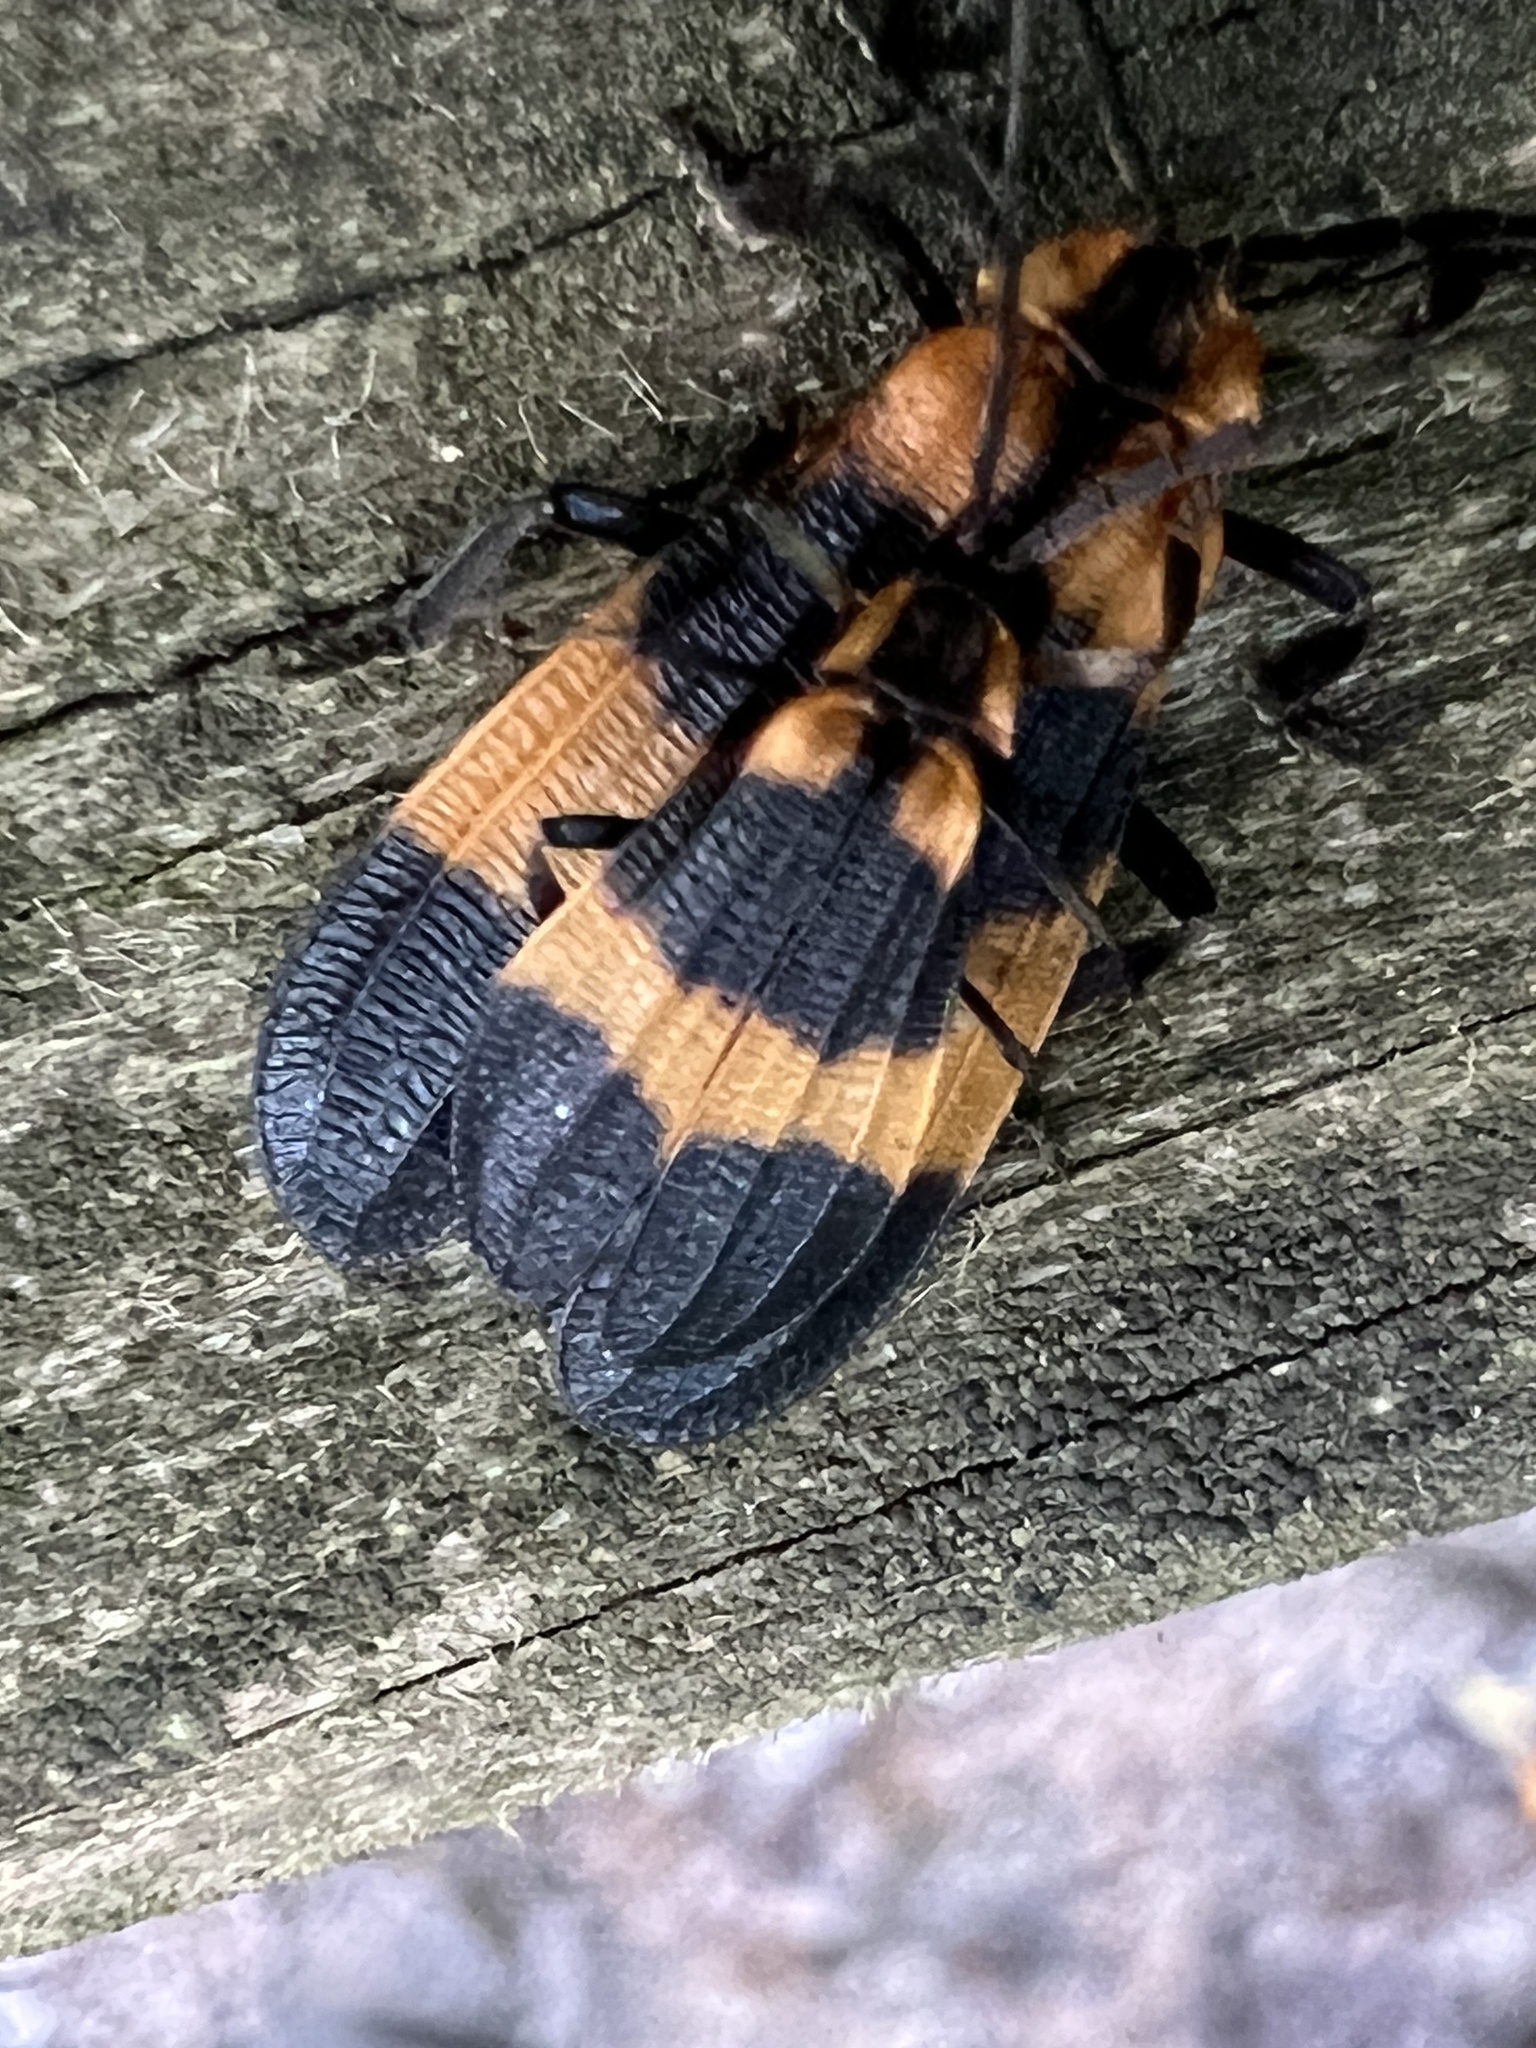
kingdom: Animalia
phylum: Arthropoda
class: Insecta
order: Coleoptera
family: Lycidae
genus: Calopteron
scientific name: Calopteron reticulatum
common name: Banded net-winged beetle
